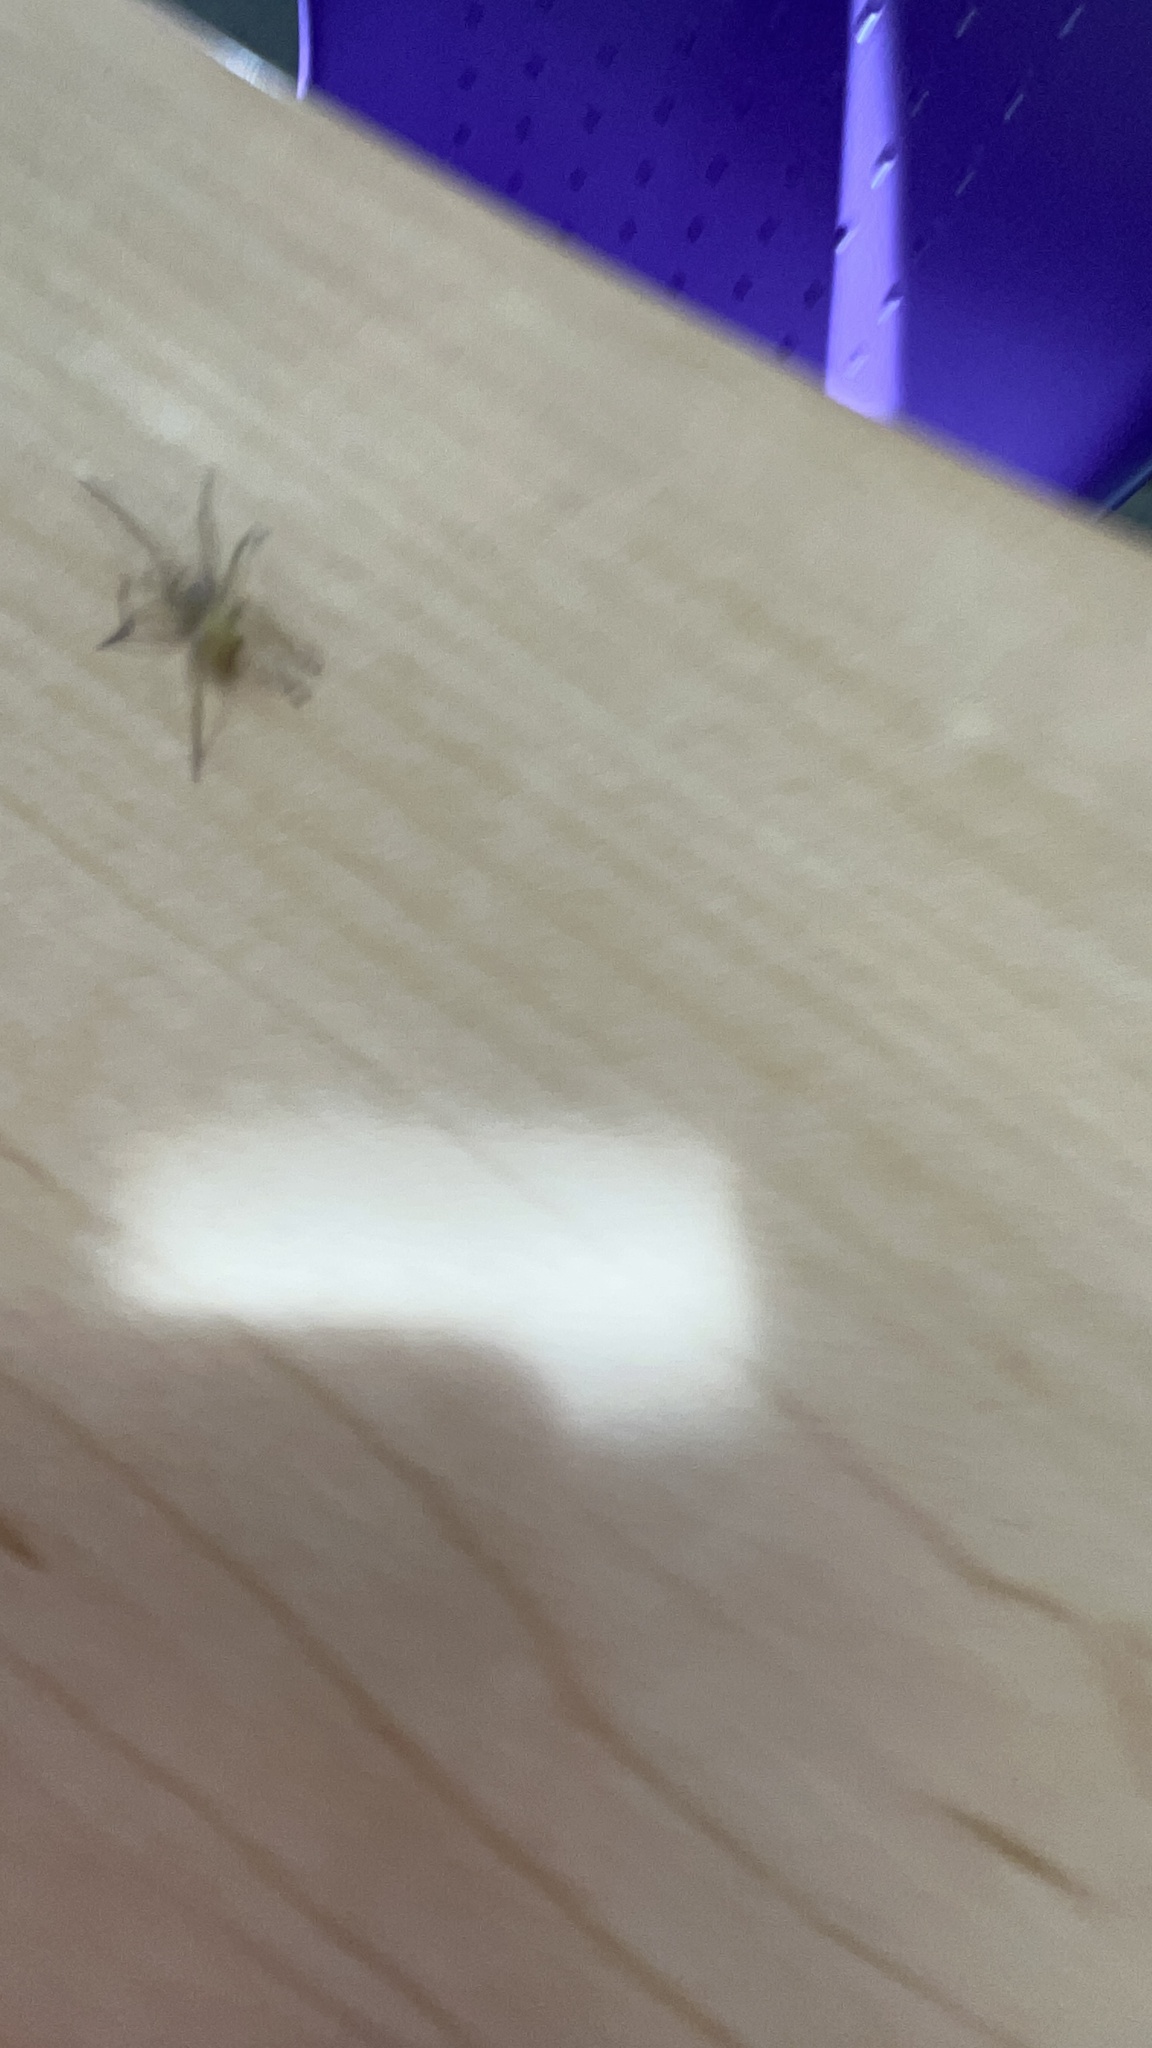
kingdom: Animalia
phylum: Arthropoda
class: Arachnida
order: Araneae
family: Cheiracanthiidae
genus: Cheiracanthium
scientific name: Cheiracanthium mildei
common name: Northern yellow sac spider
